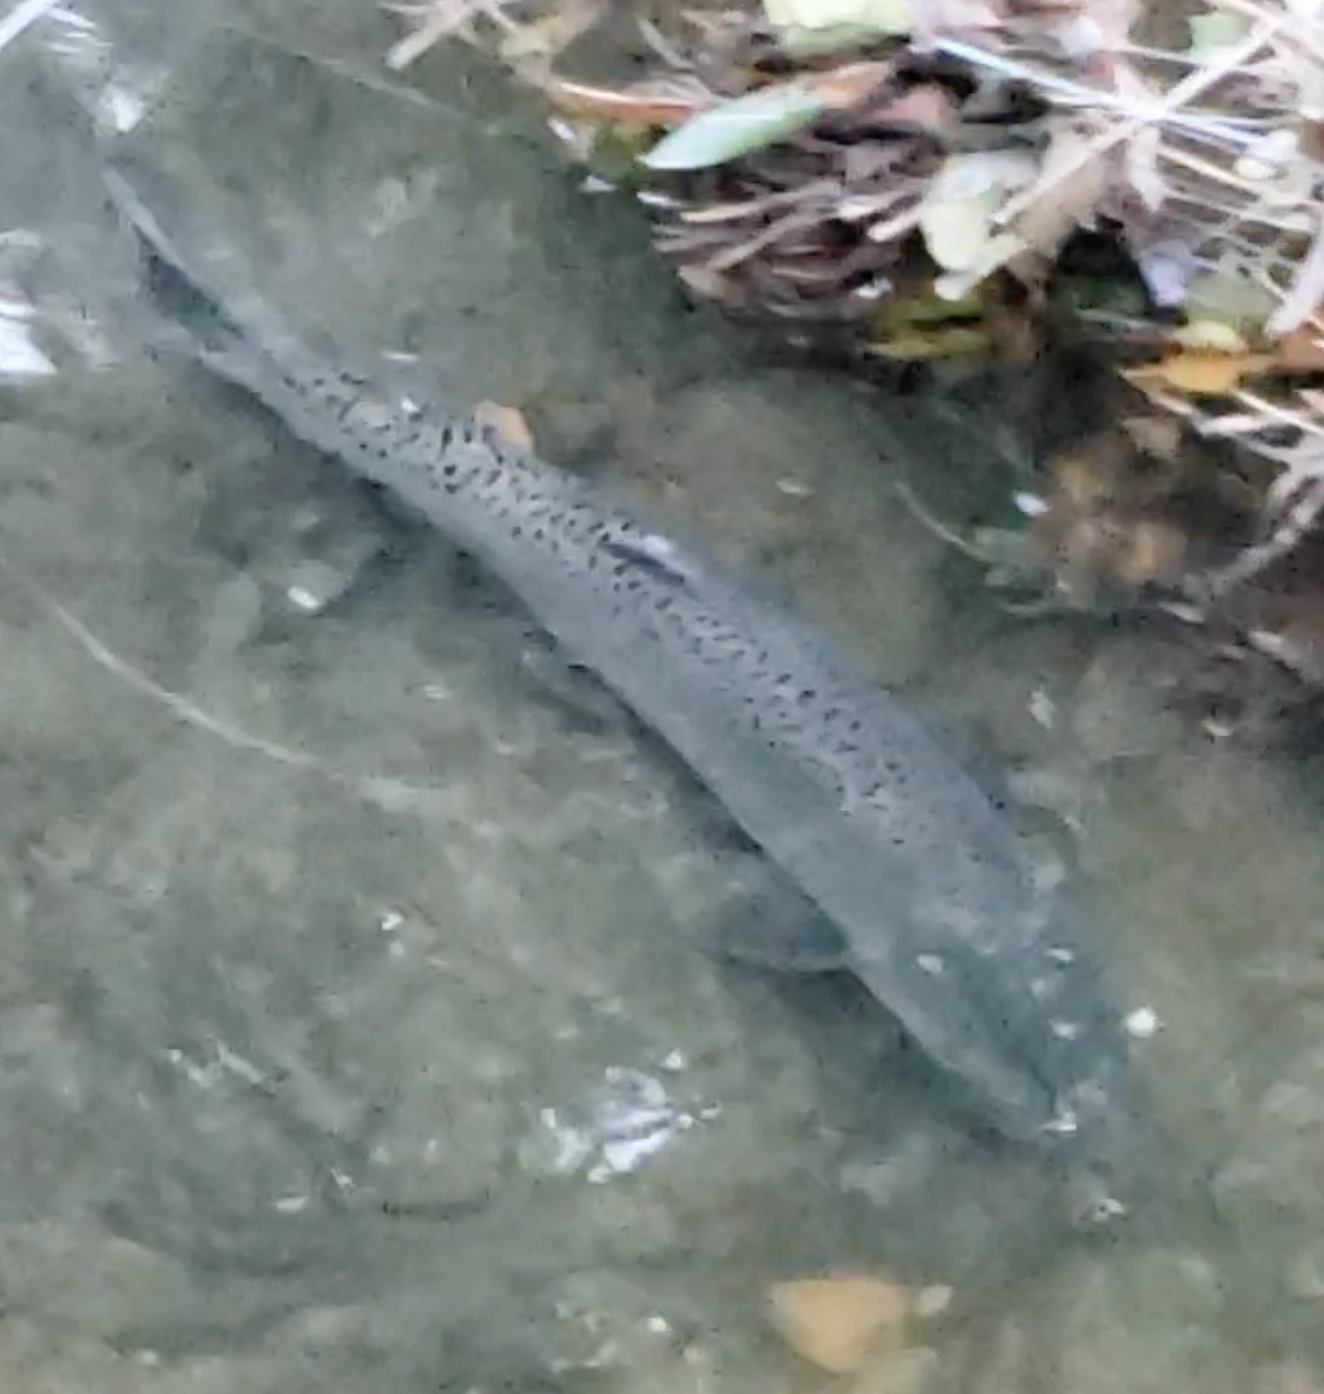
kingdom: Animalia
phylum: Chordata
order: Salmoniformes
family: Salmonidae
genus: Oncorhynchus
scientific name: Oncorhynchus tshawytscha
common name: Chinook salmon
